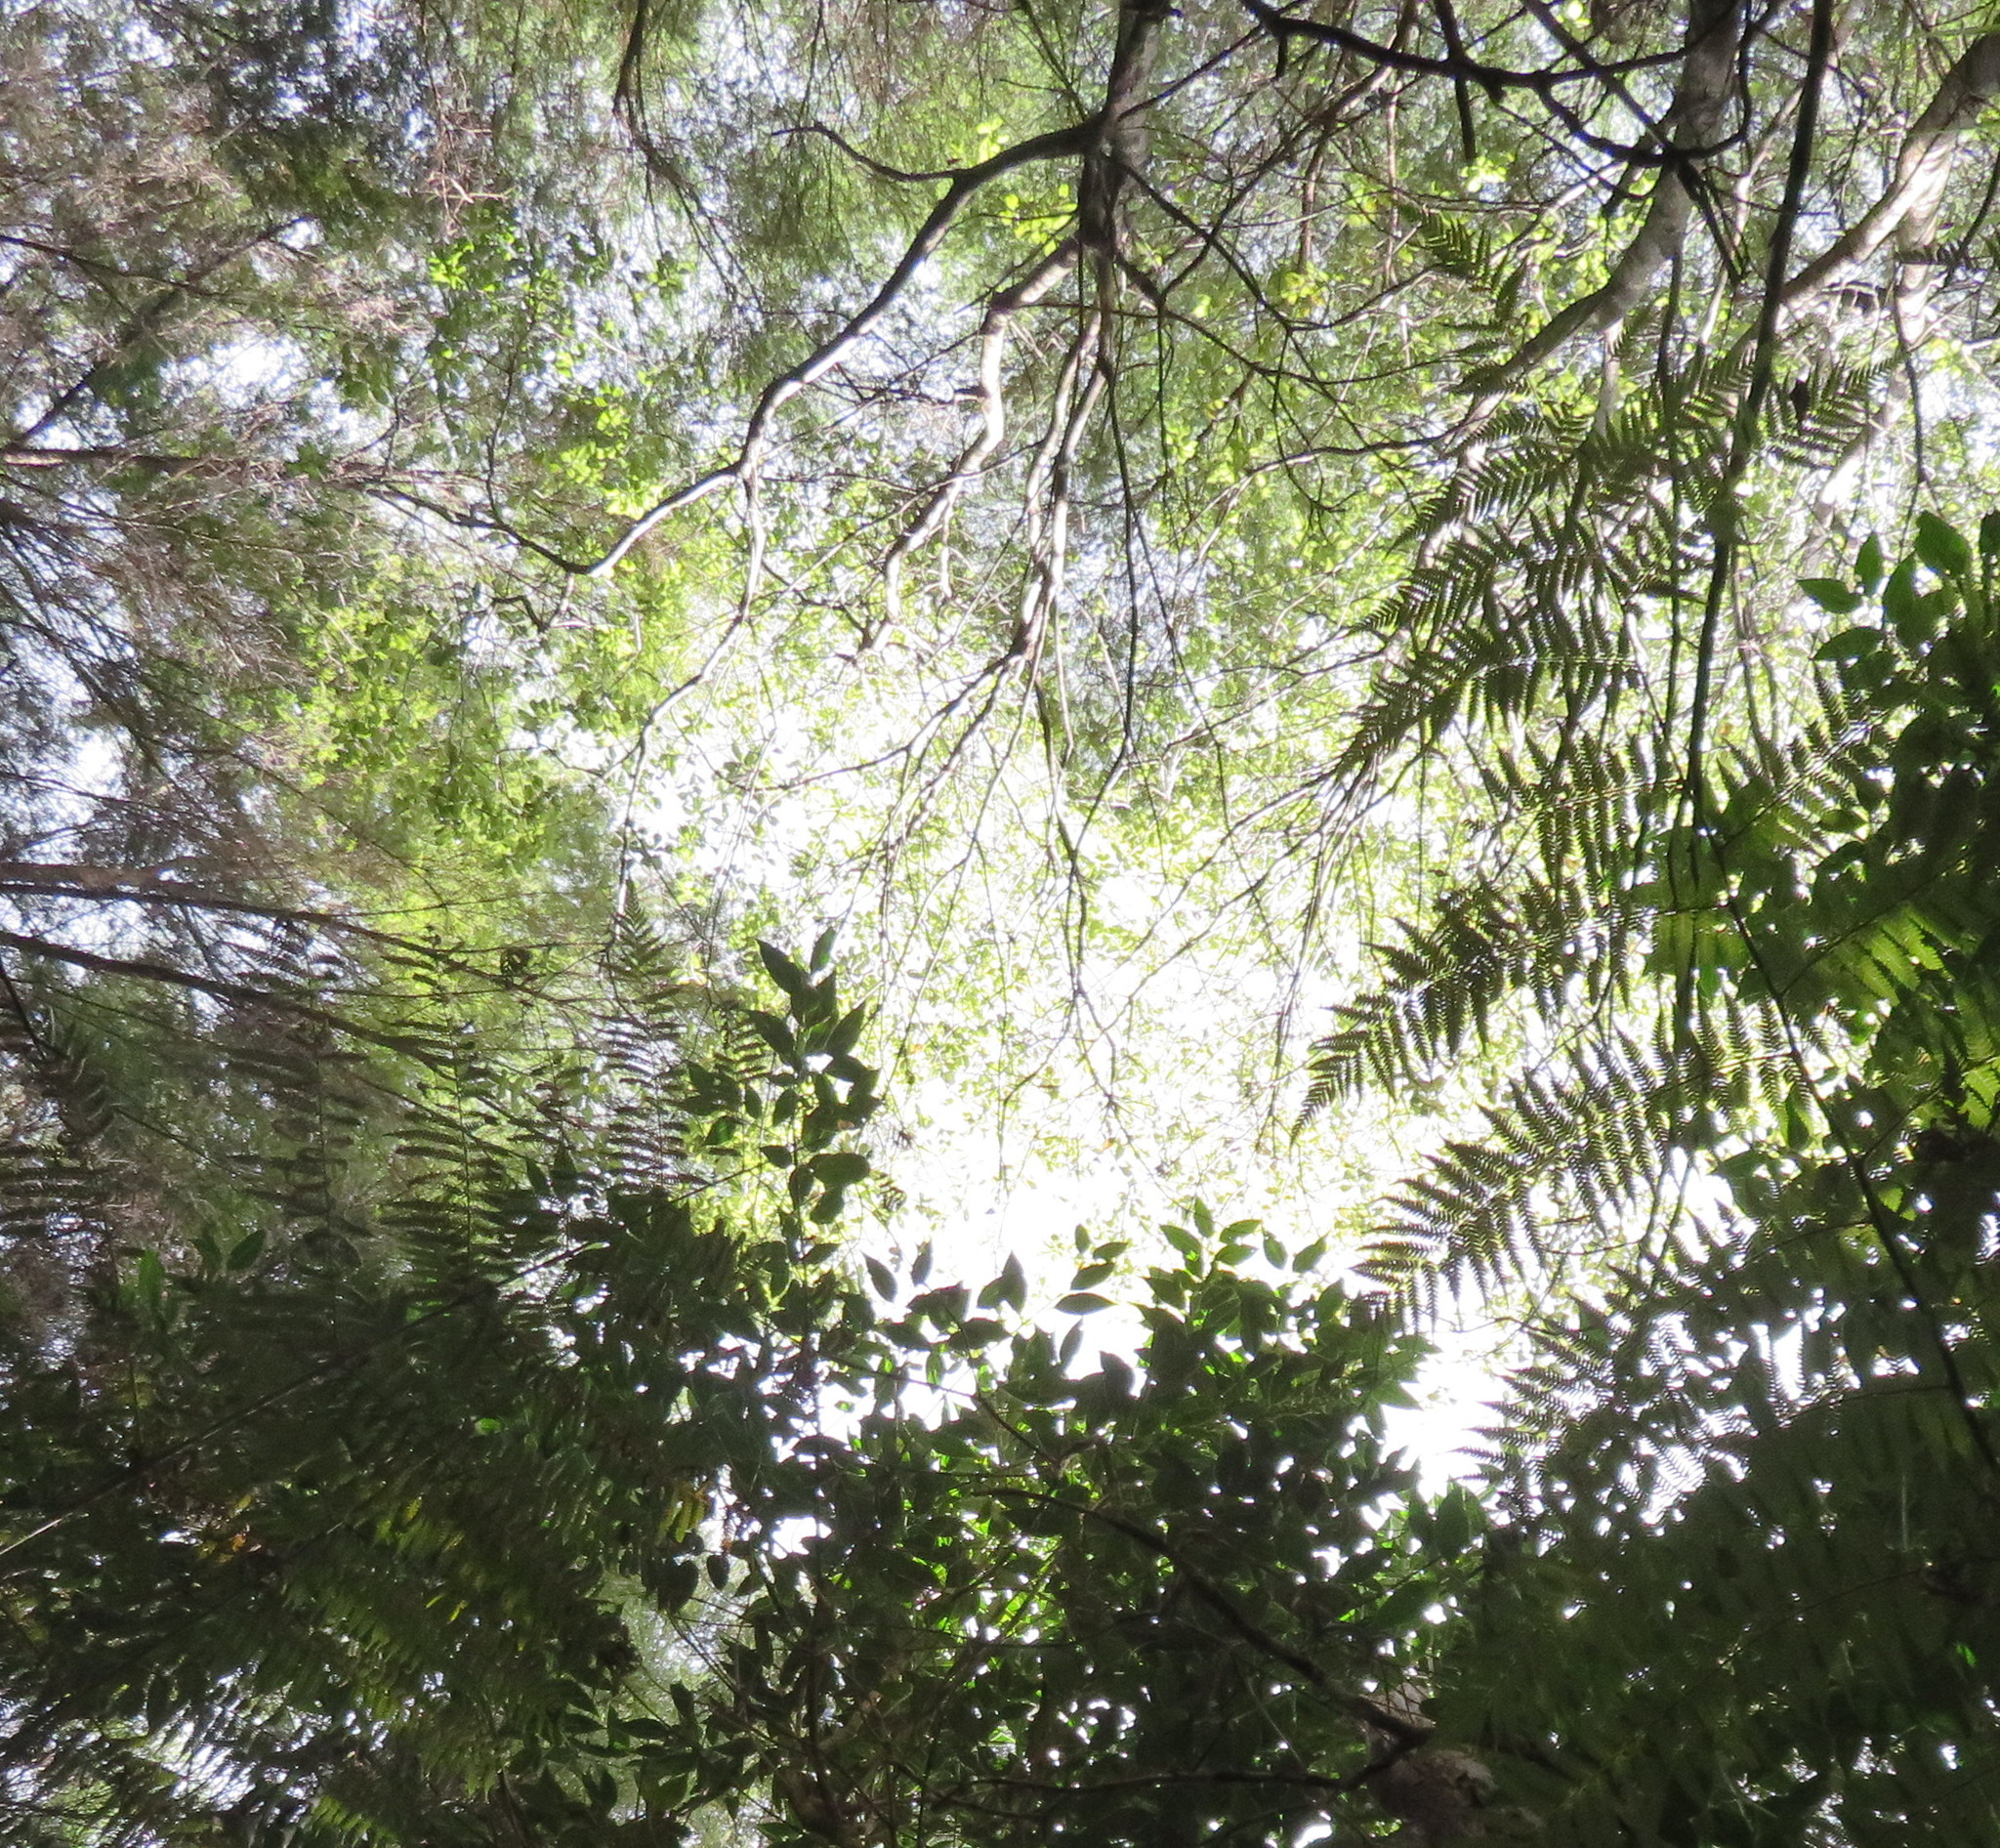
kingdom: Plantae
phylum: Tracheophyta
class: Magnoliopsida
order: Lamiales
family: Oleaceae
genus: Ligustrum
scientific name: Ligustrum lucidum
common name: Glossy privet
